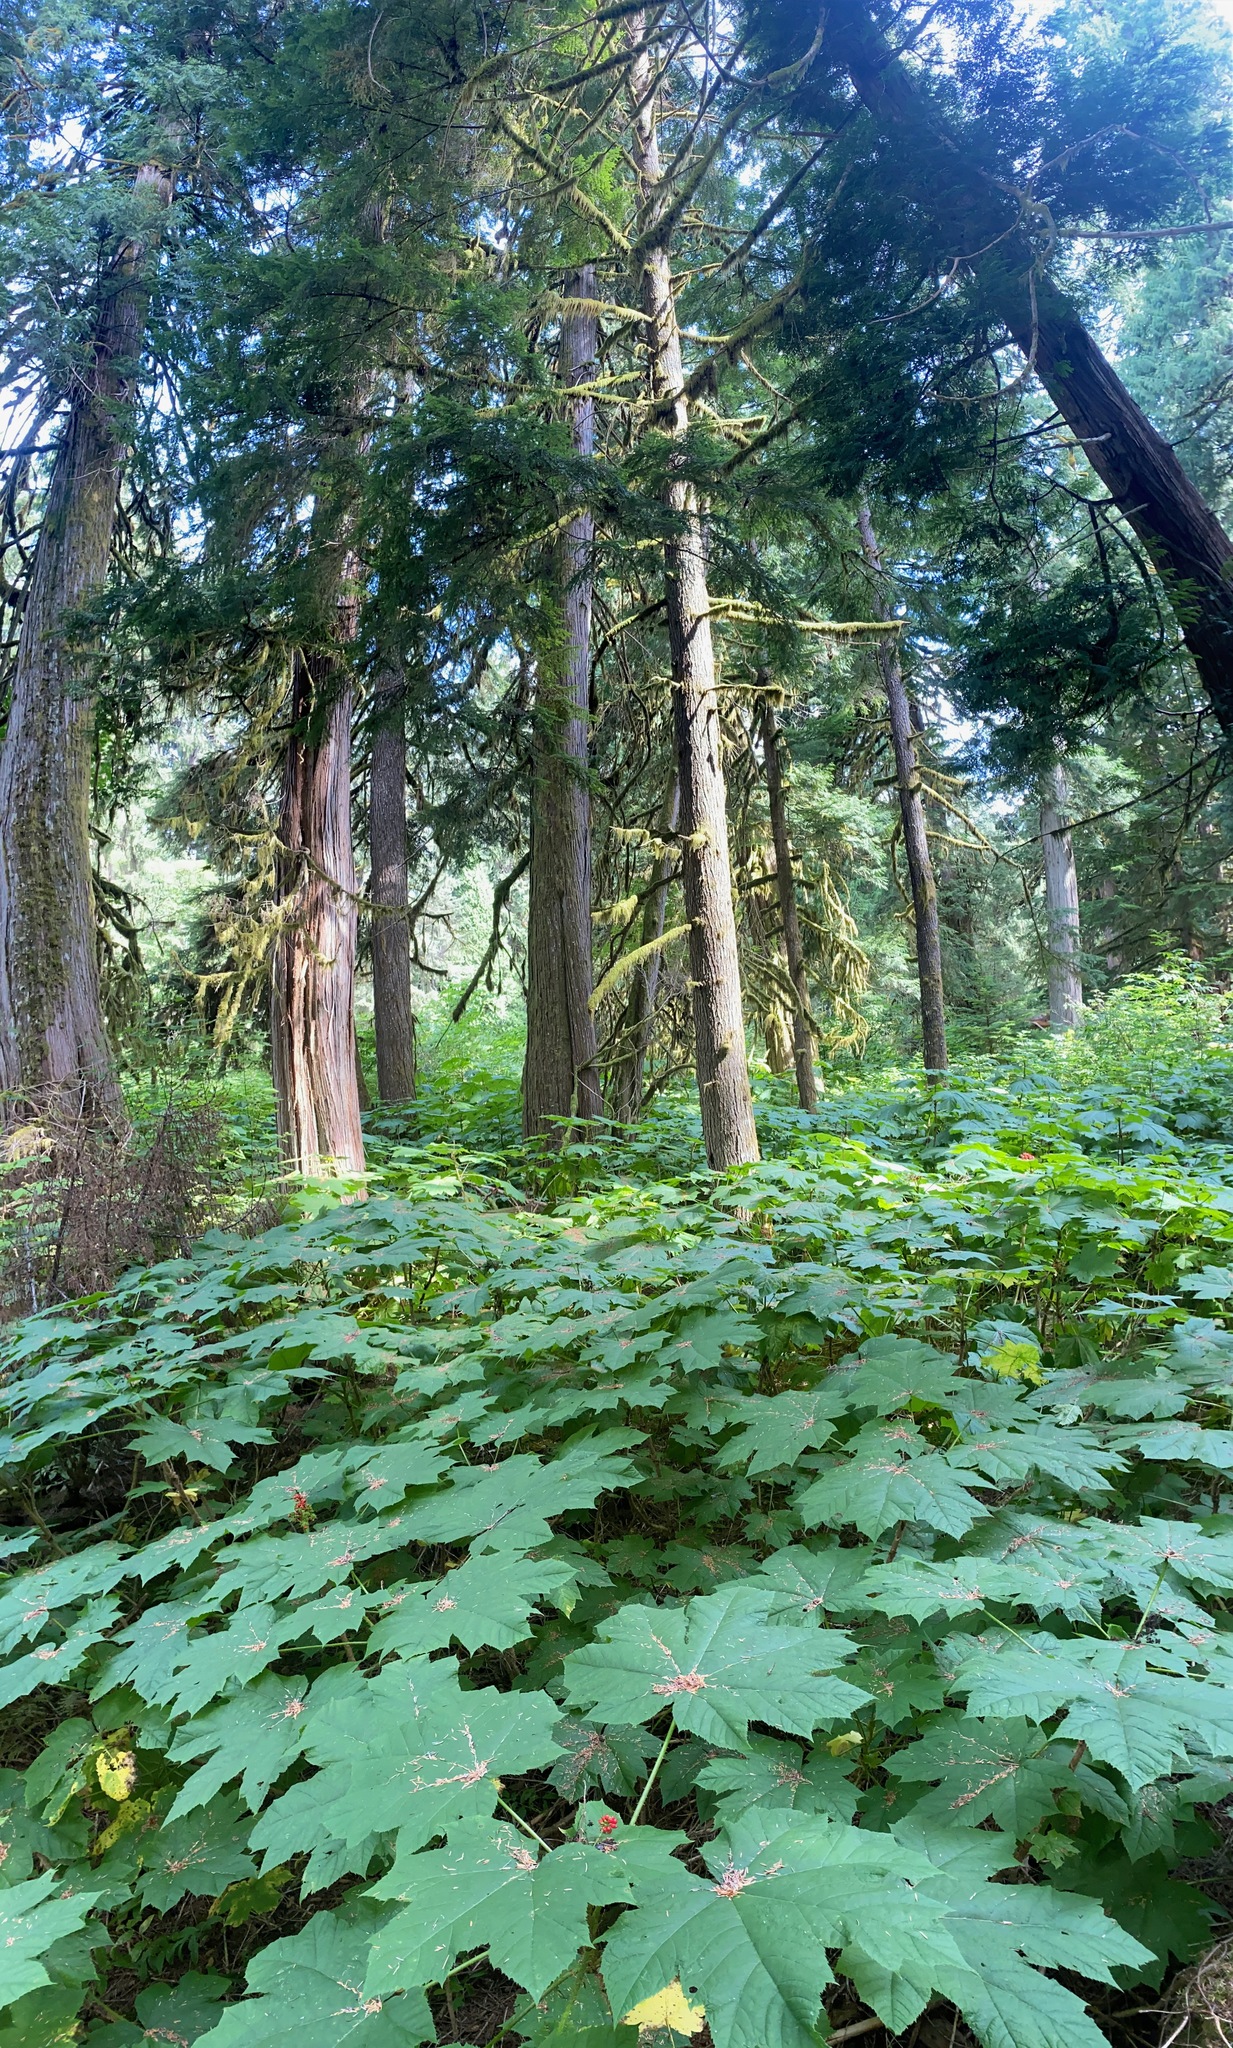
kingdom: Plantae
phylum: Tracheophyta
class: Magnoliopsida
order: Apiales
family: Araliaceae
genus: Oplopanax
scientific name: Oplopanax horridus
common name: Devil's walking-stick
